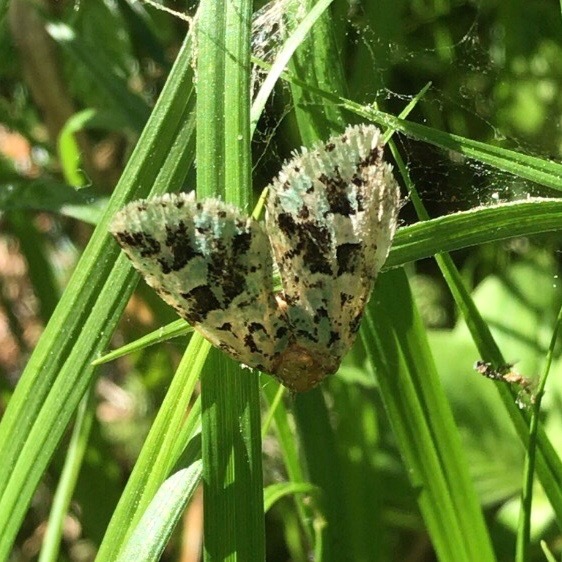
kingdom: Animalia
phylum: Arthropoda
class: Insecta
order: Lepidoptera
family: Noctuidae
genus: Feralia
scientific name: Feralia comstocki
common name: Comstock's sallow
